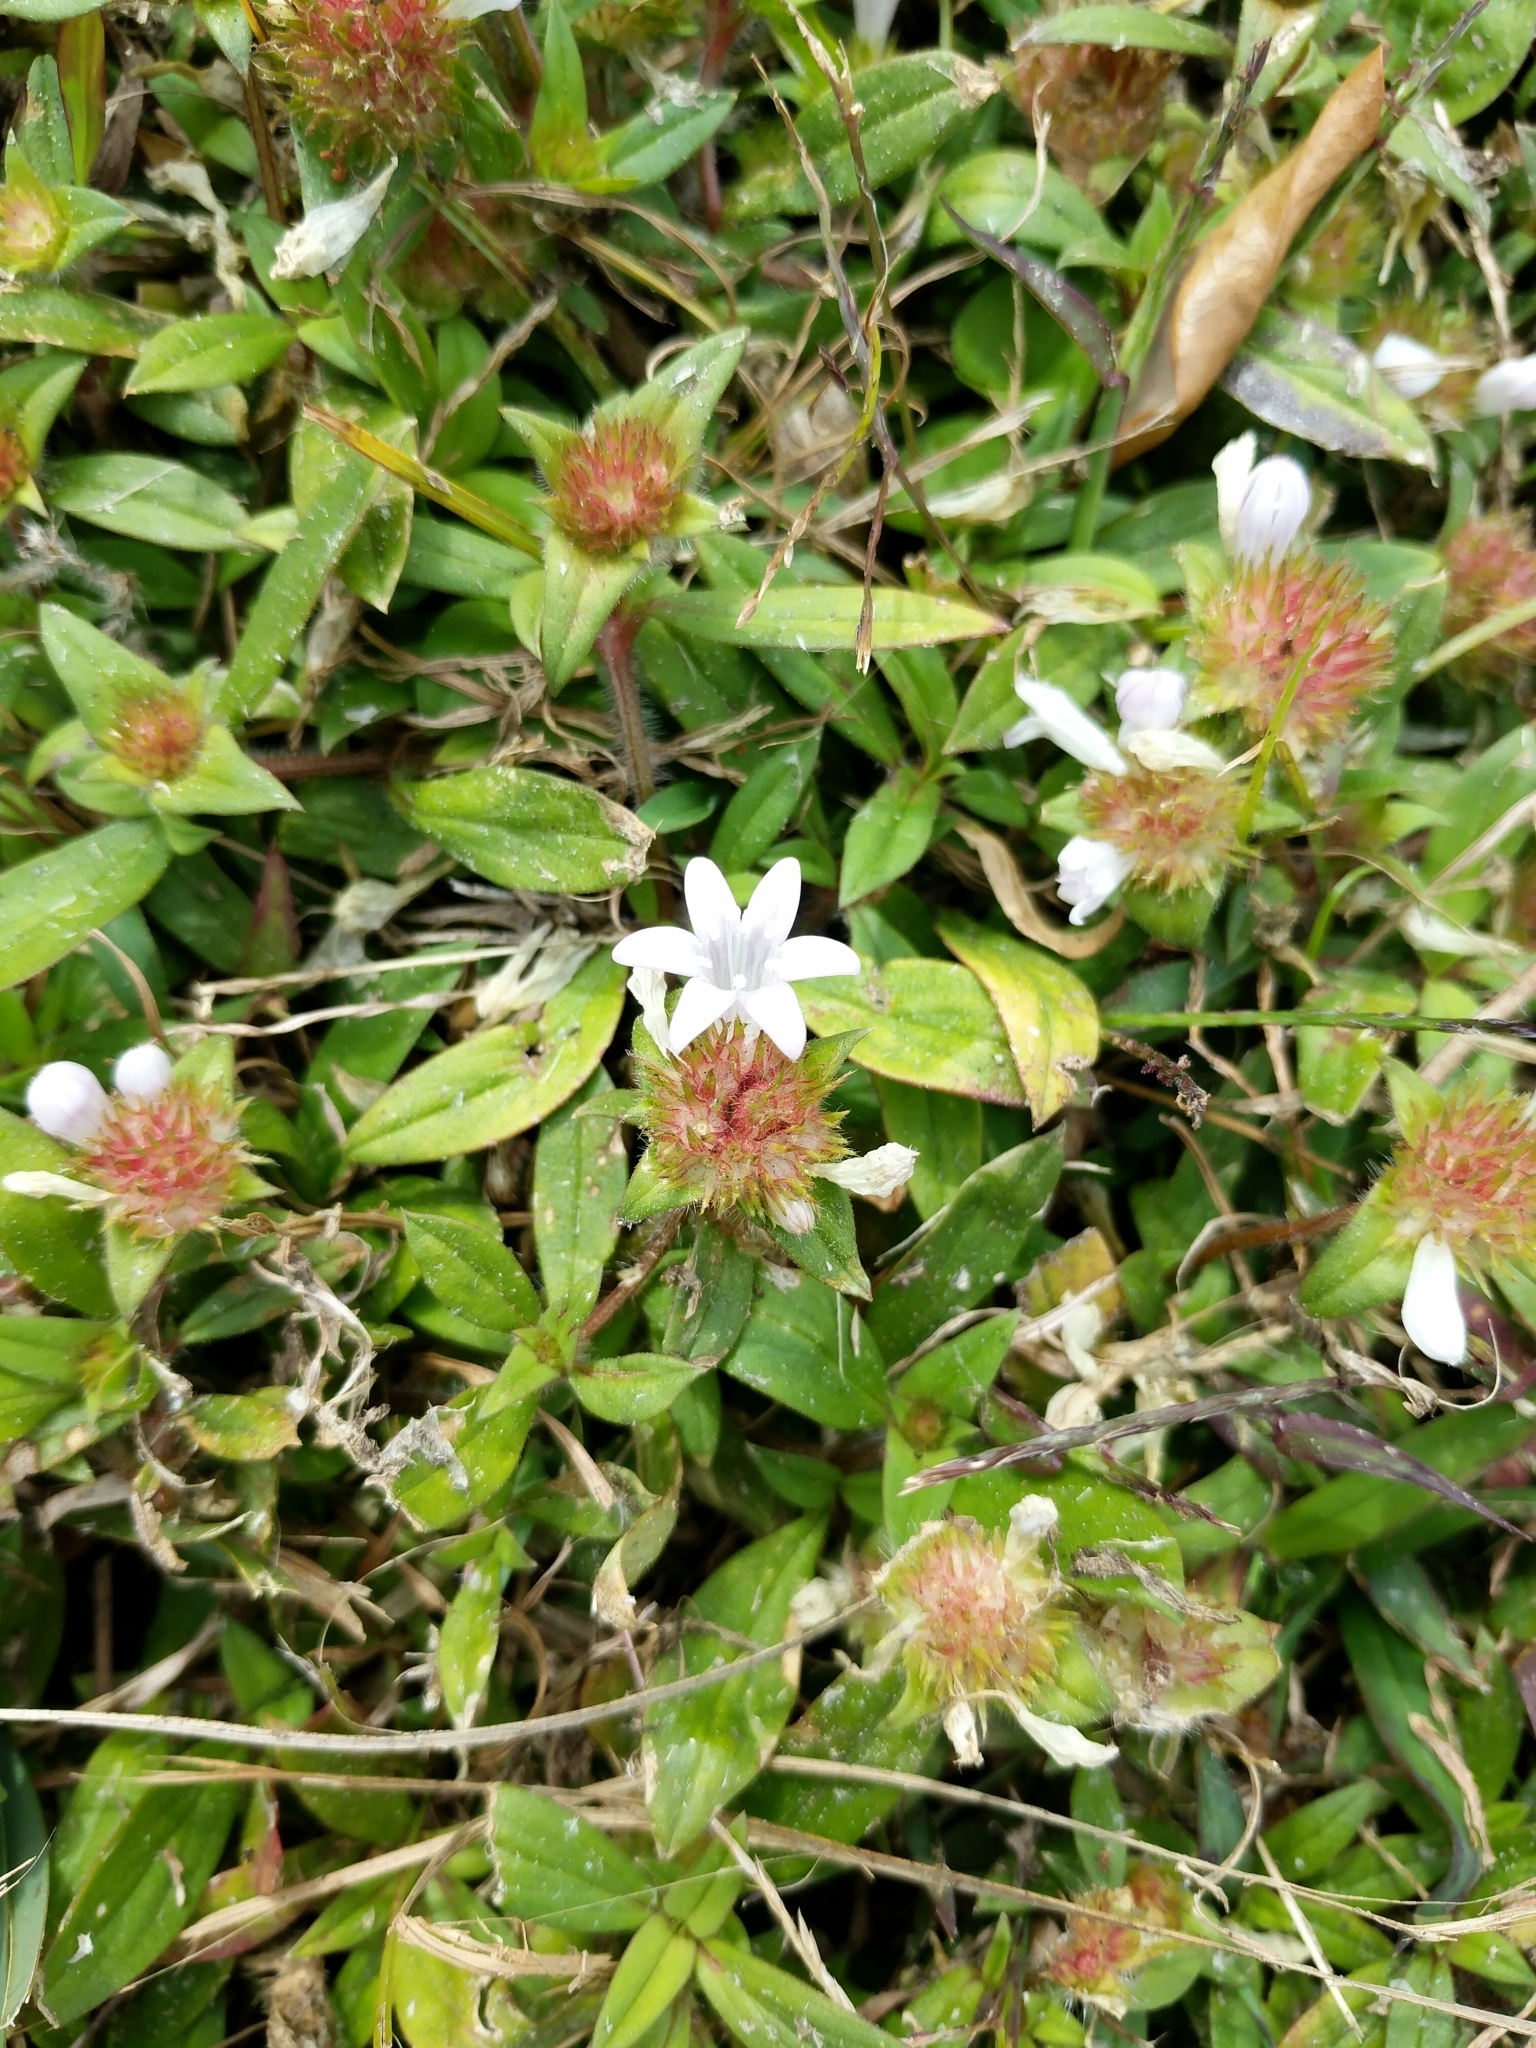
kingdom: Plantae
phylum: Tracheophyta
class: Magnoliopsida
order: Gentianales
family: Rubiaceae
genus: Richardia
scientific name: Richardia grandiflora
